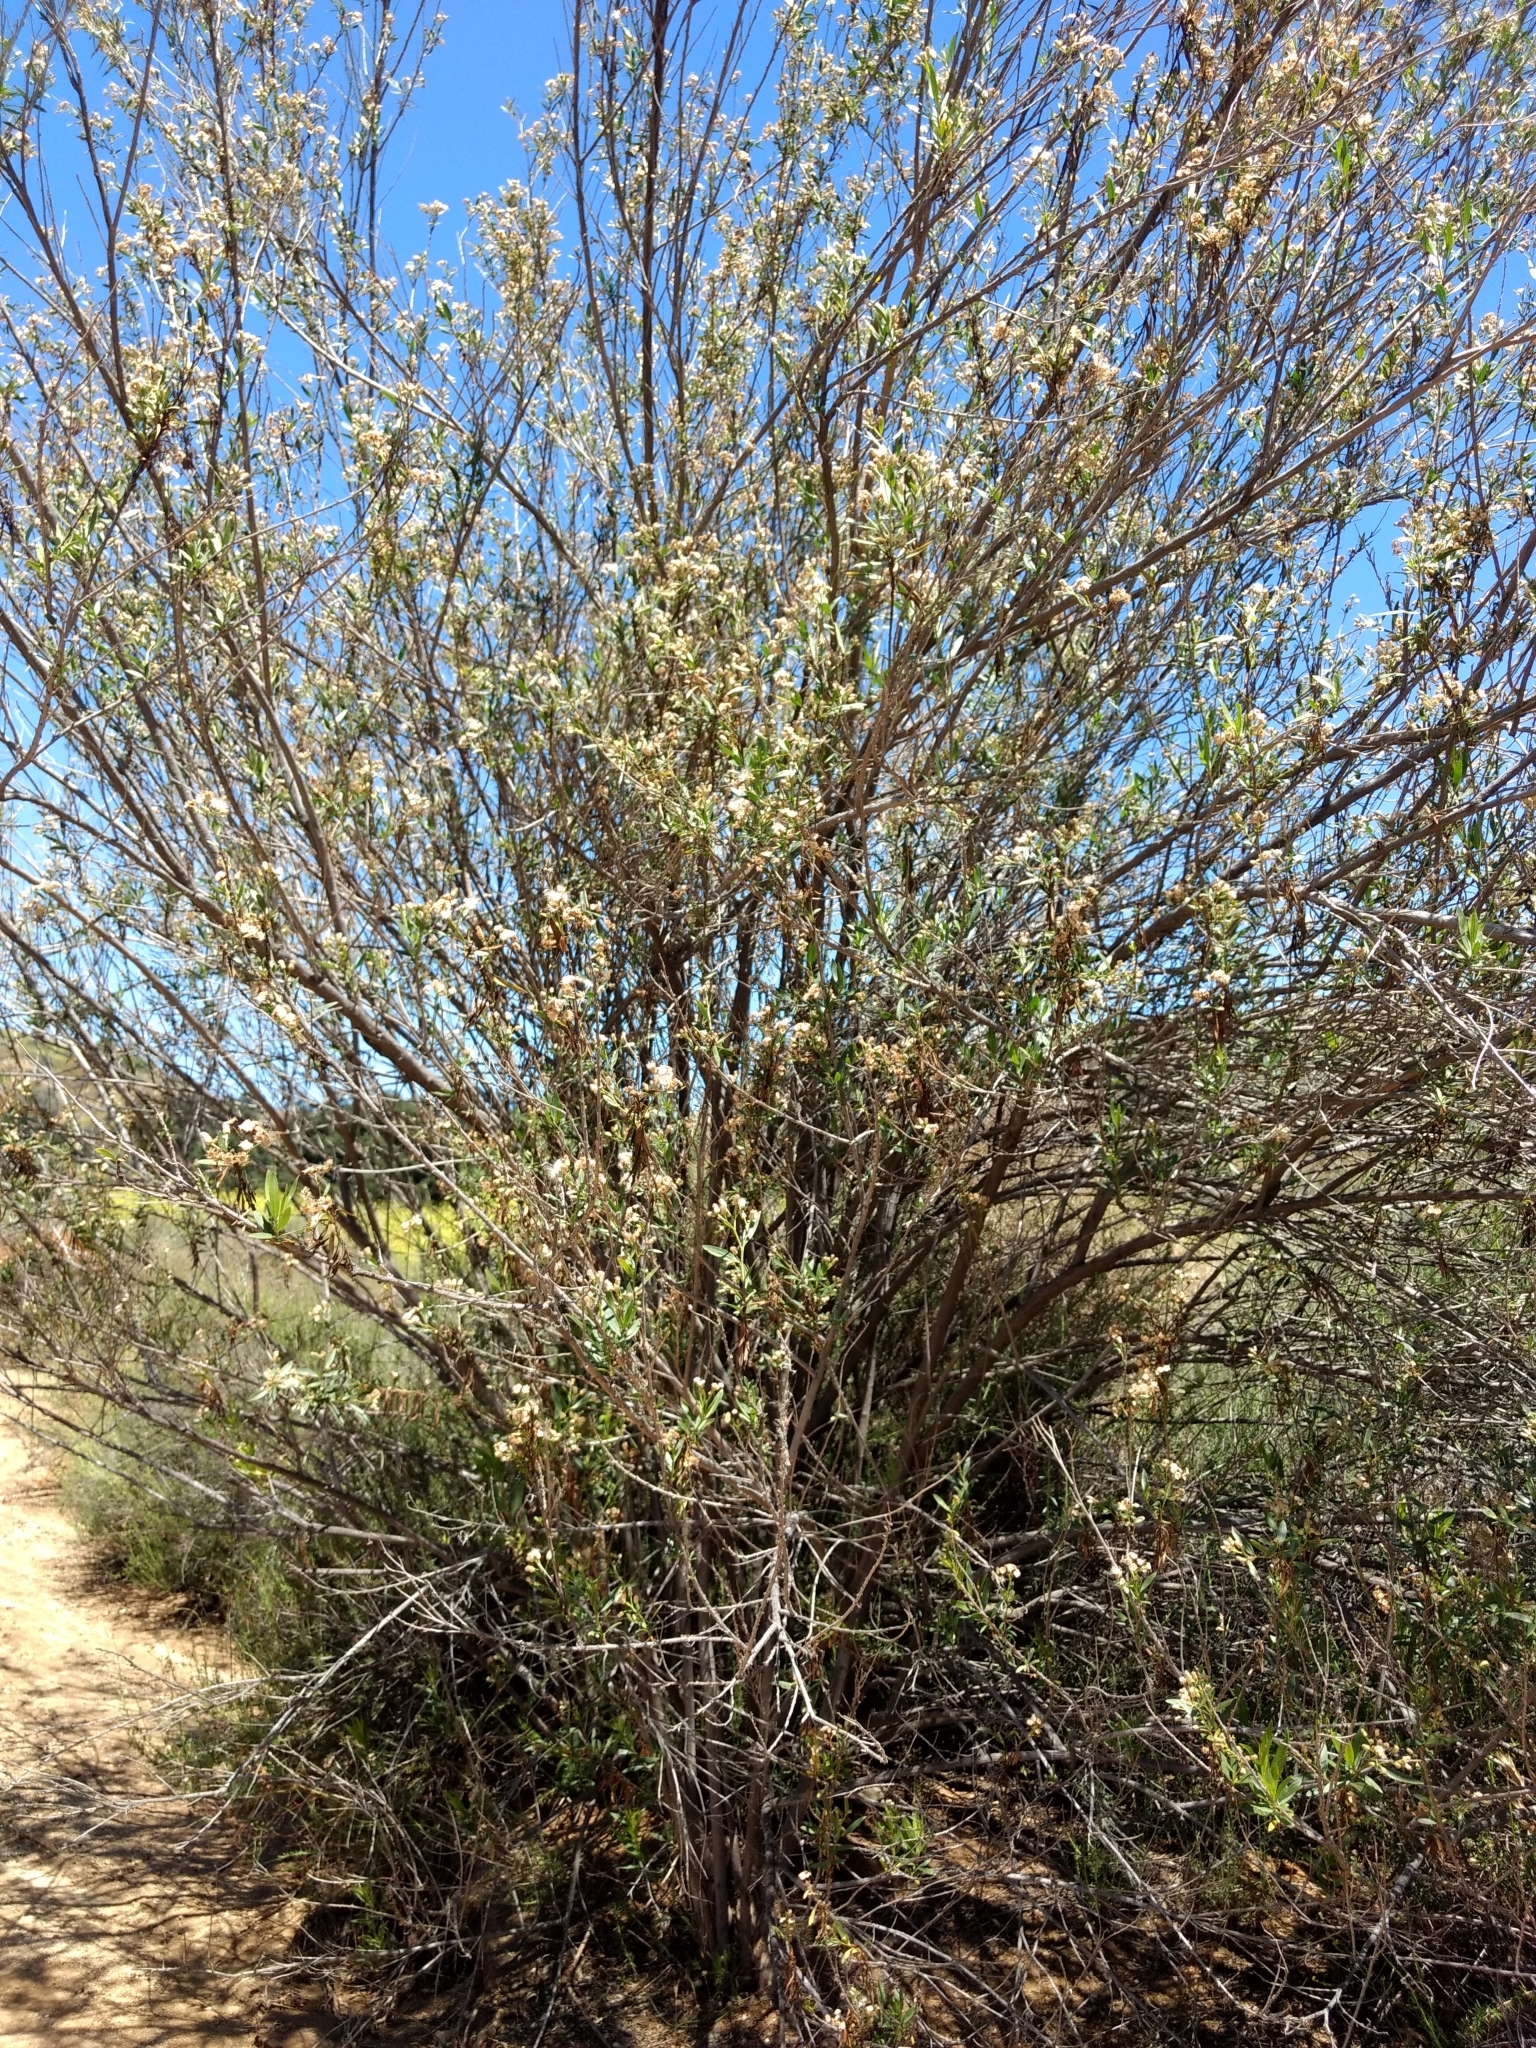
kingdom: Plantae
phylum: Tracheophyta
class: Magnoliopsida
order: Asterales
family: Asteraceae
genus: Baccharis
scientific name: Baccharis salicifolia
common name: Sticky baccharis
